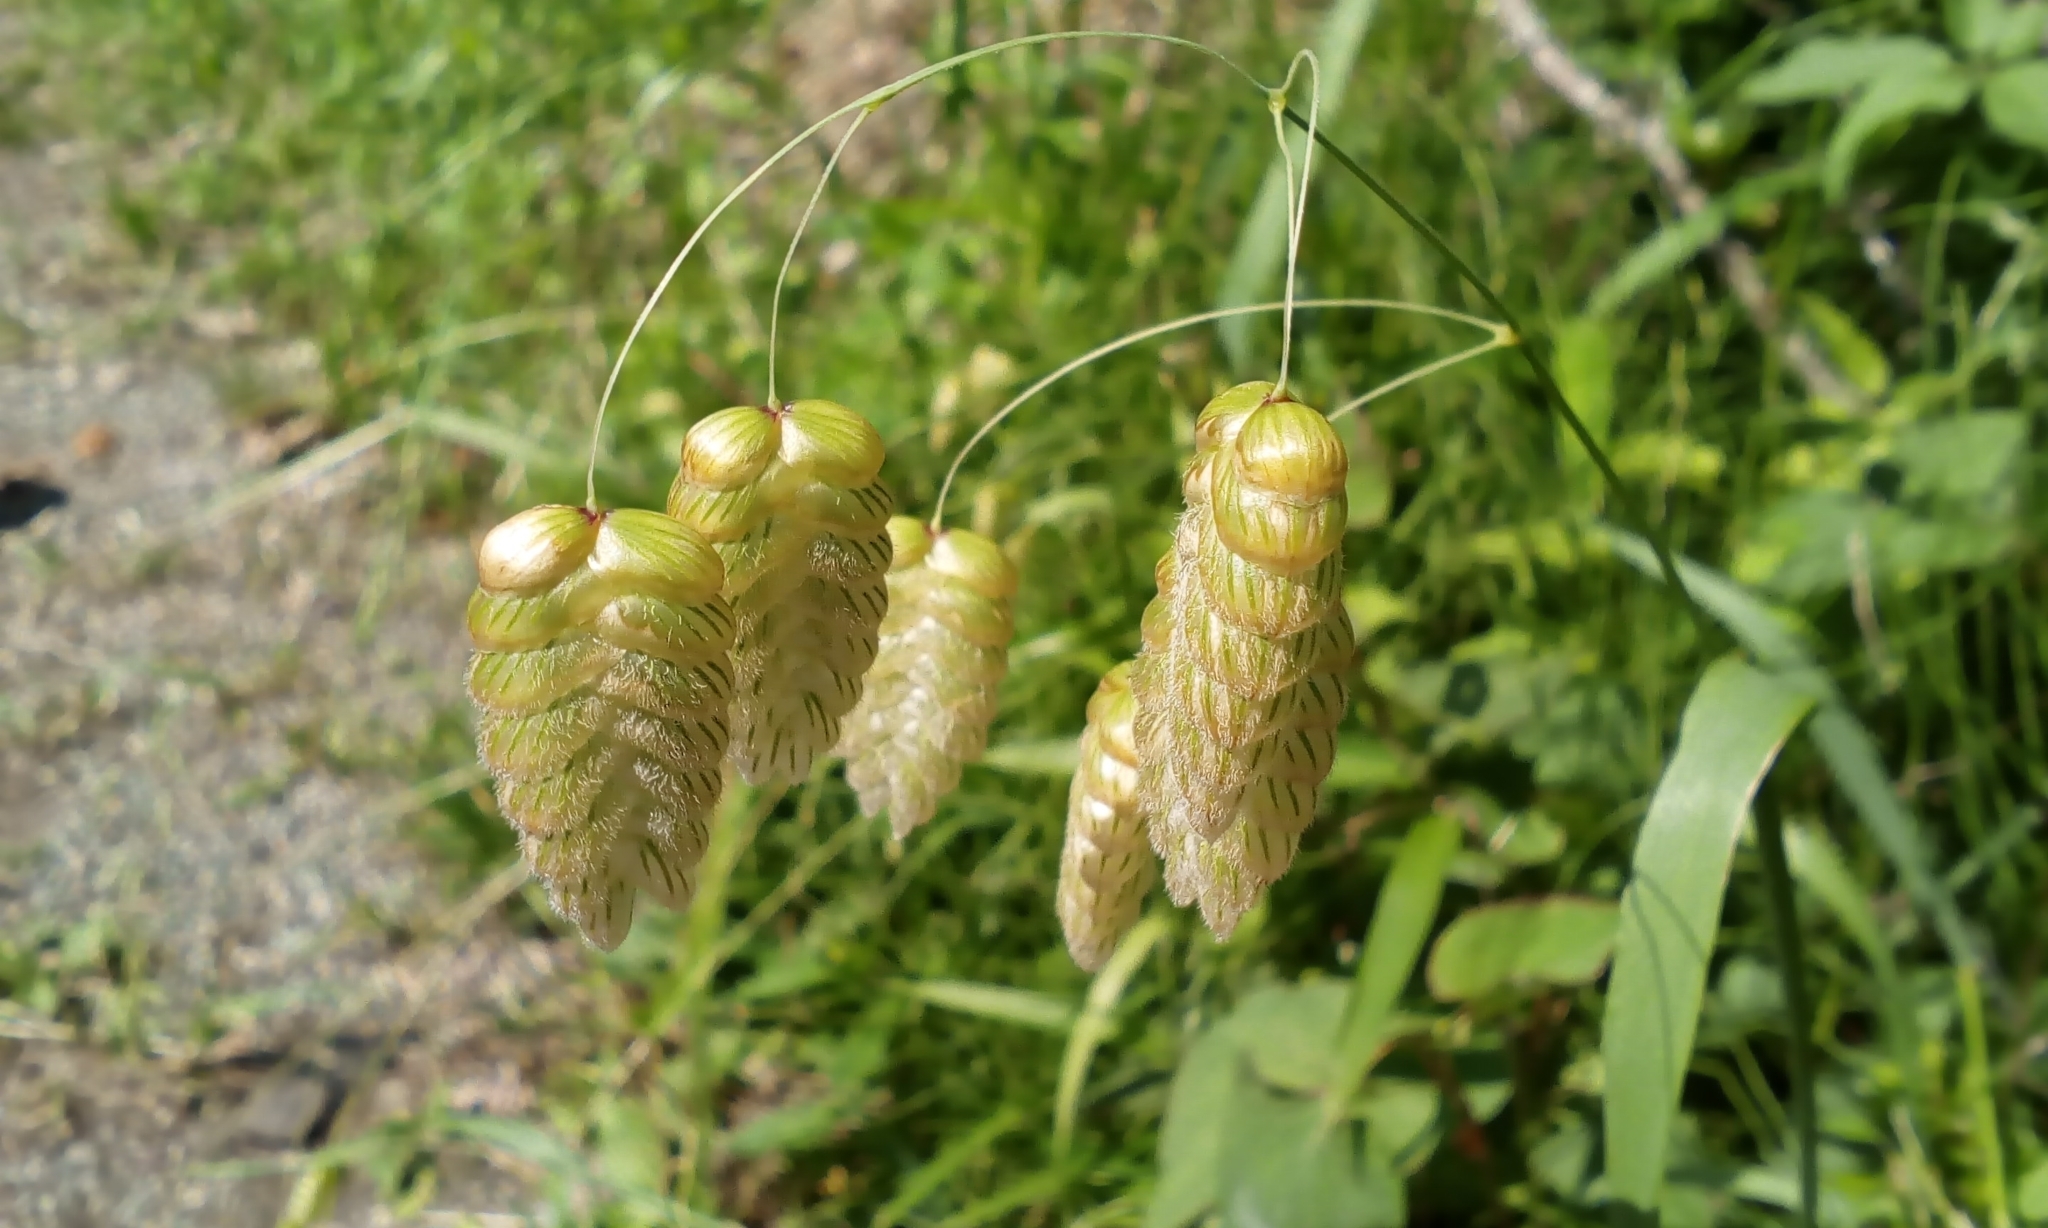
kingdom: Plantae
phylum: Tracheophyta
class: Liliopsida
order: Poales
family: Poaceae
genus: Briza
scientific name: Briza maxima
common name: Big quakinggrass
